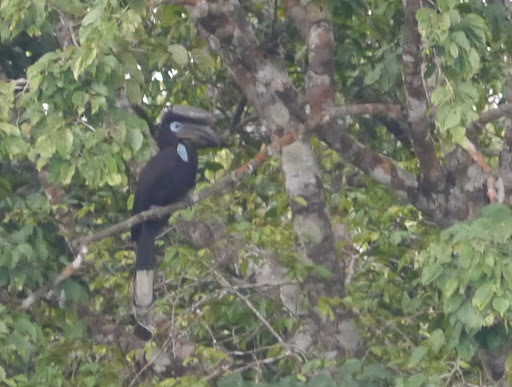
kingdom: Animalia
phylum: Chordata
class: Aves
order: Bucerotiformes
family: Bucerotidae
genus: Ceratogymna
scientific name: Ceratogymna atrata
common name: Black-casqued hornbill
